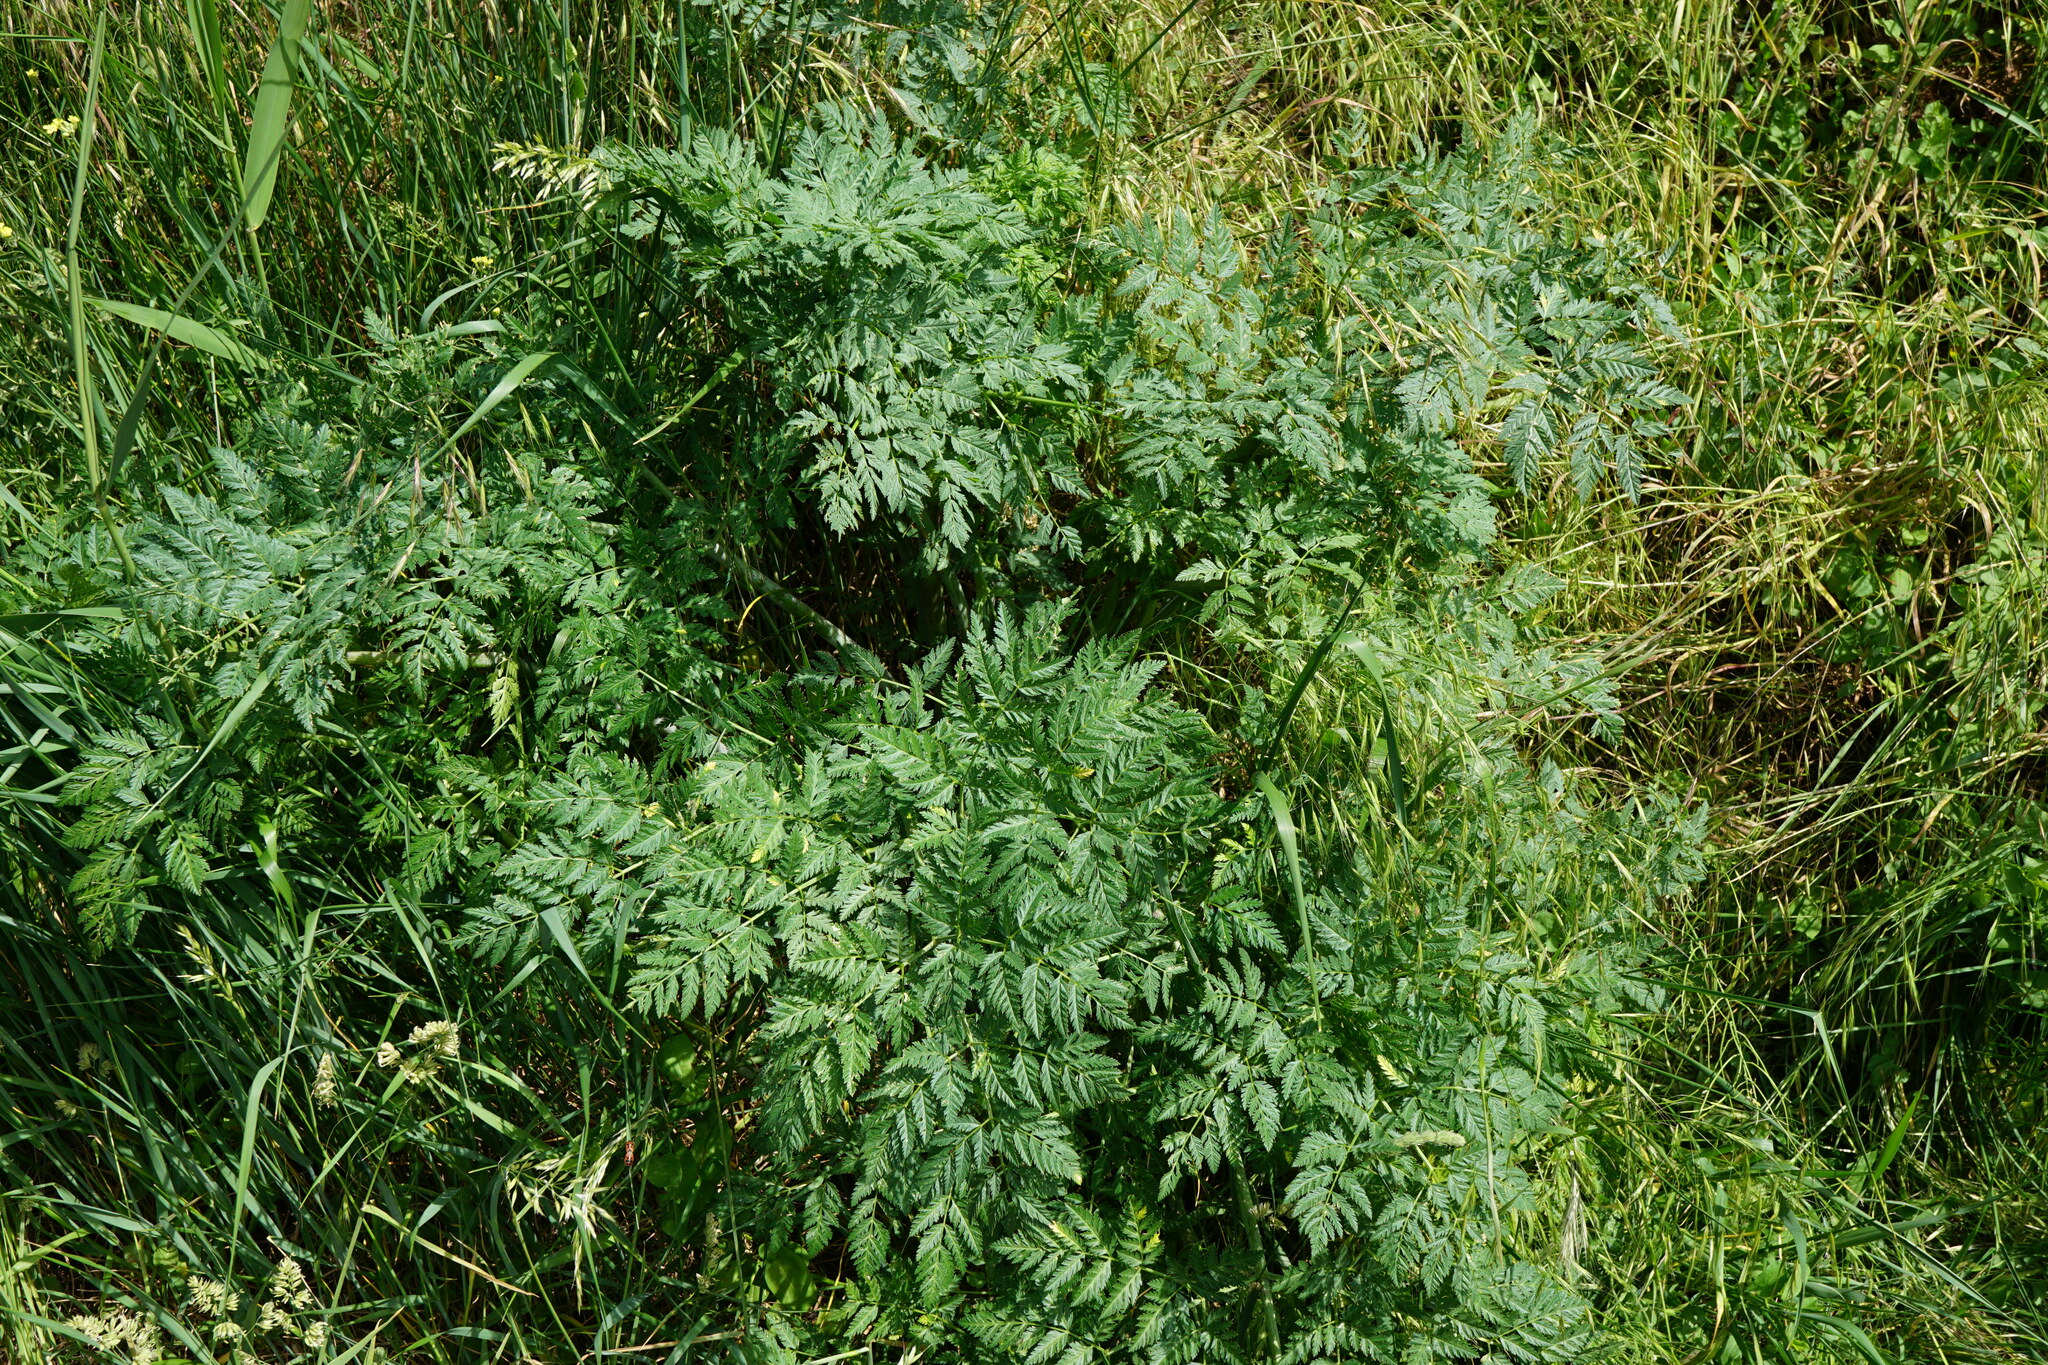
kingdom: Plantae
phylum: Tracheophyta
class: Magnoliopsida
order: Apiales
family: Apiaceae
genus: Conium
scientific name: Conium maculatum
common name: Hemlock
